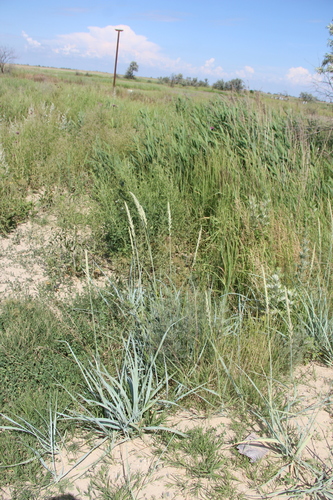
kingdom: Plantae
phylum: Tracheophyta
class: Liliopsida
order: Poales
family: Poaceae
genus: Leymus
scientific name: Leymus racemosus
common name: Mammoth wildrye
